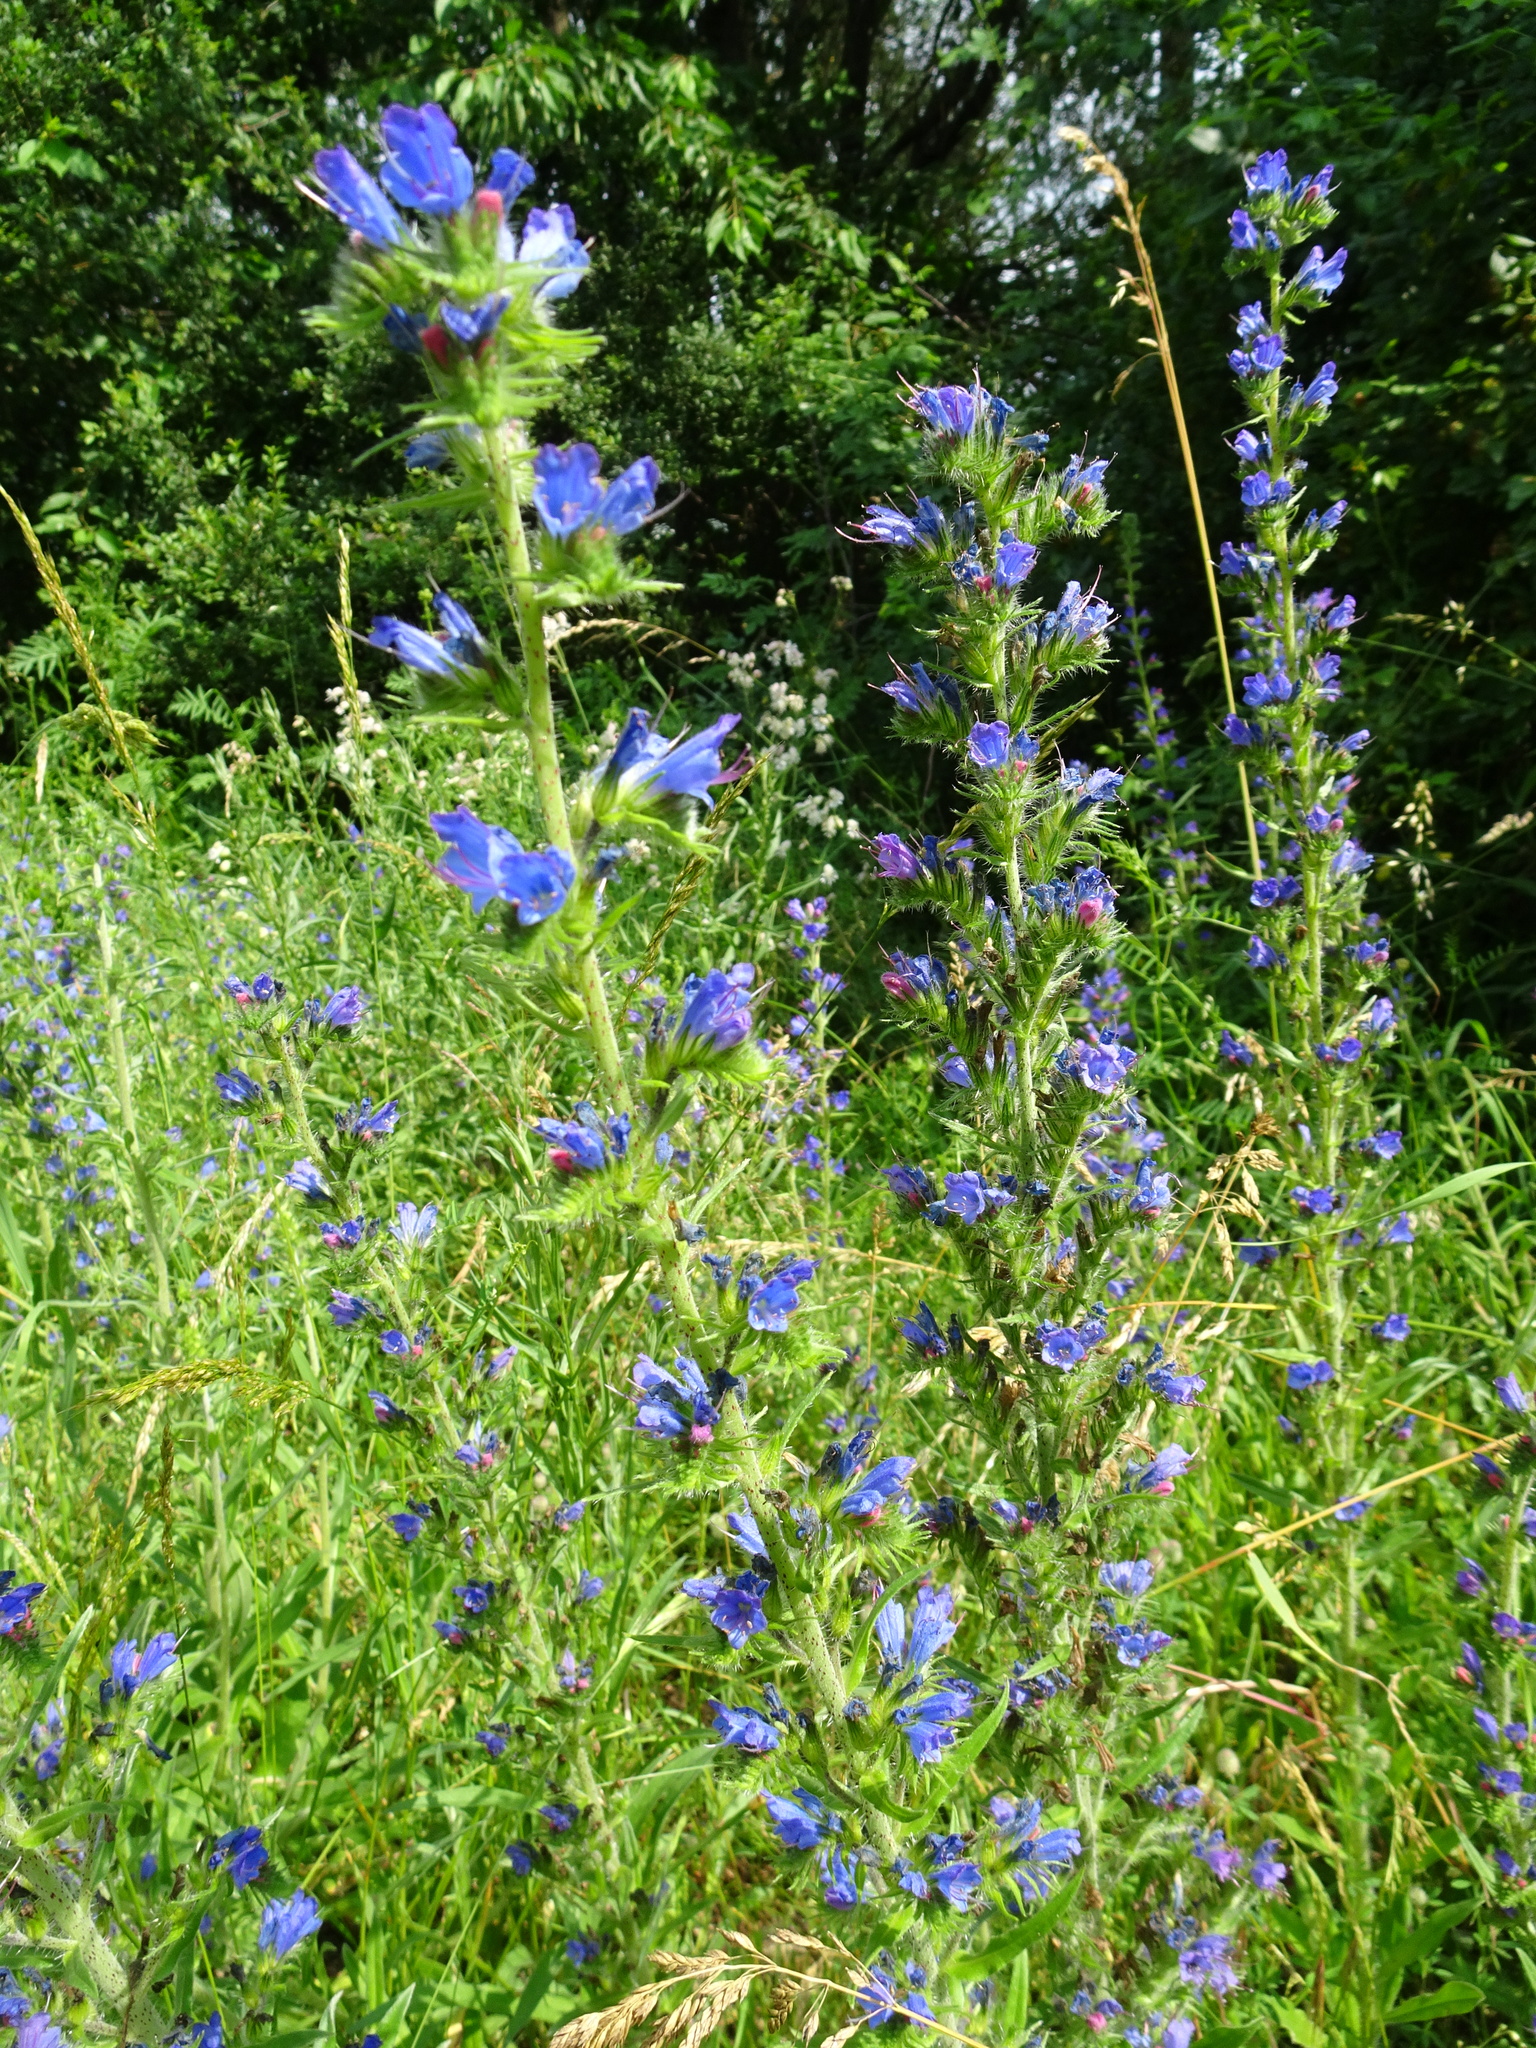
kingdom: Plantae
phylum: Tracheophyta
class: Magnoliopsida
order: Boraginales
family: Boraginaceae
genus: Echium
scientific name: Echium vulgare
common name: Common viper's bugloss
